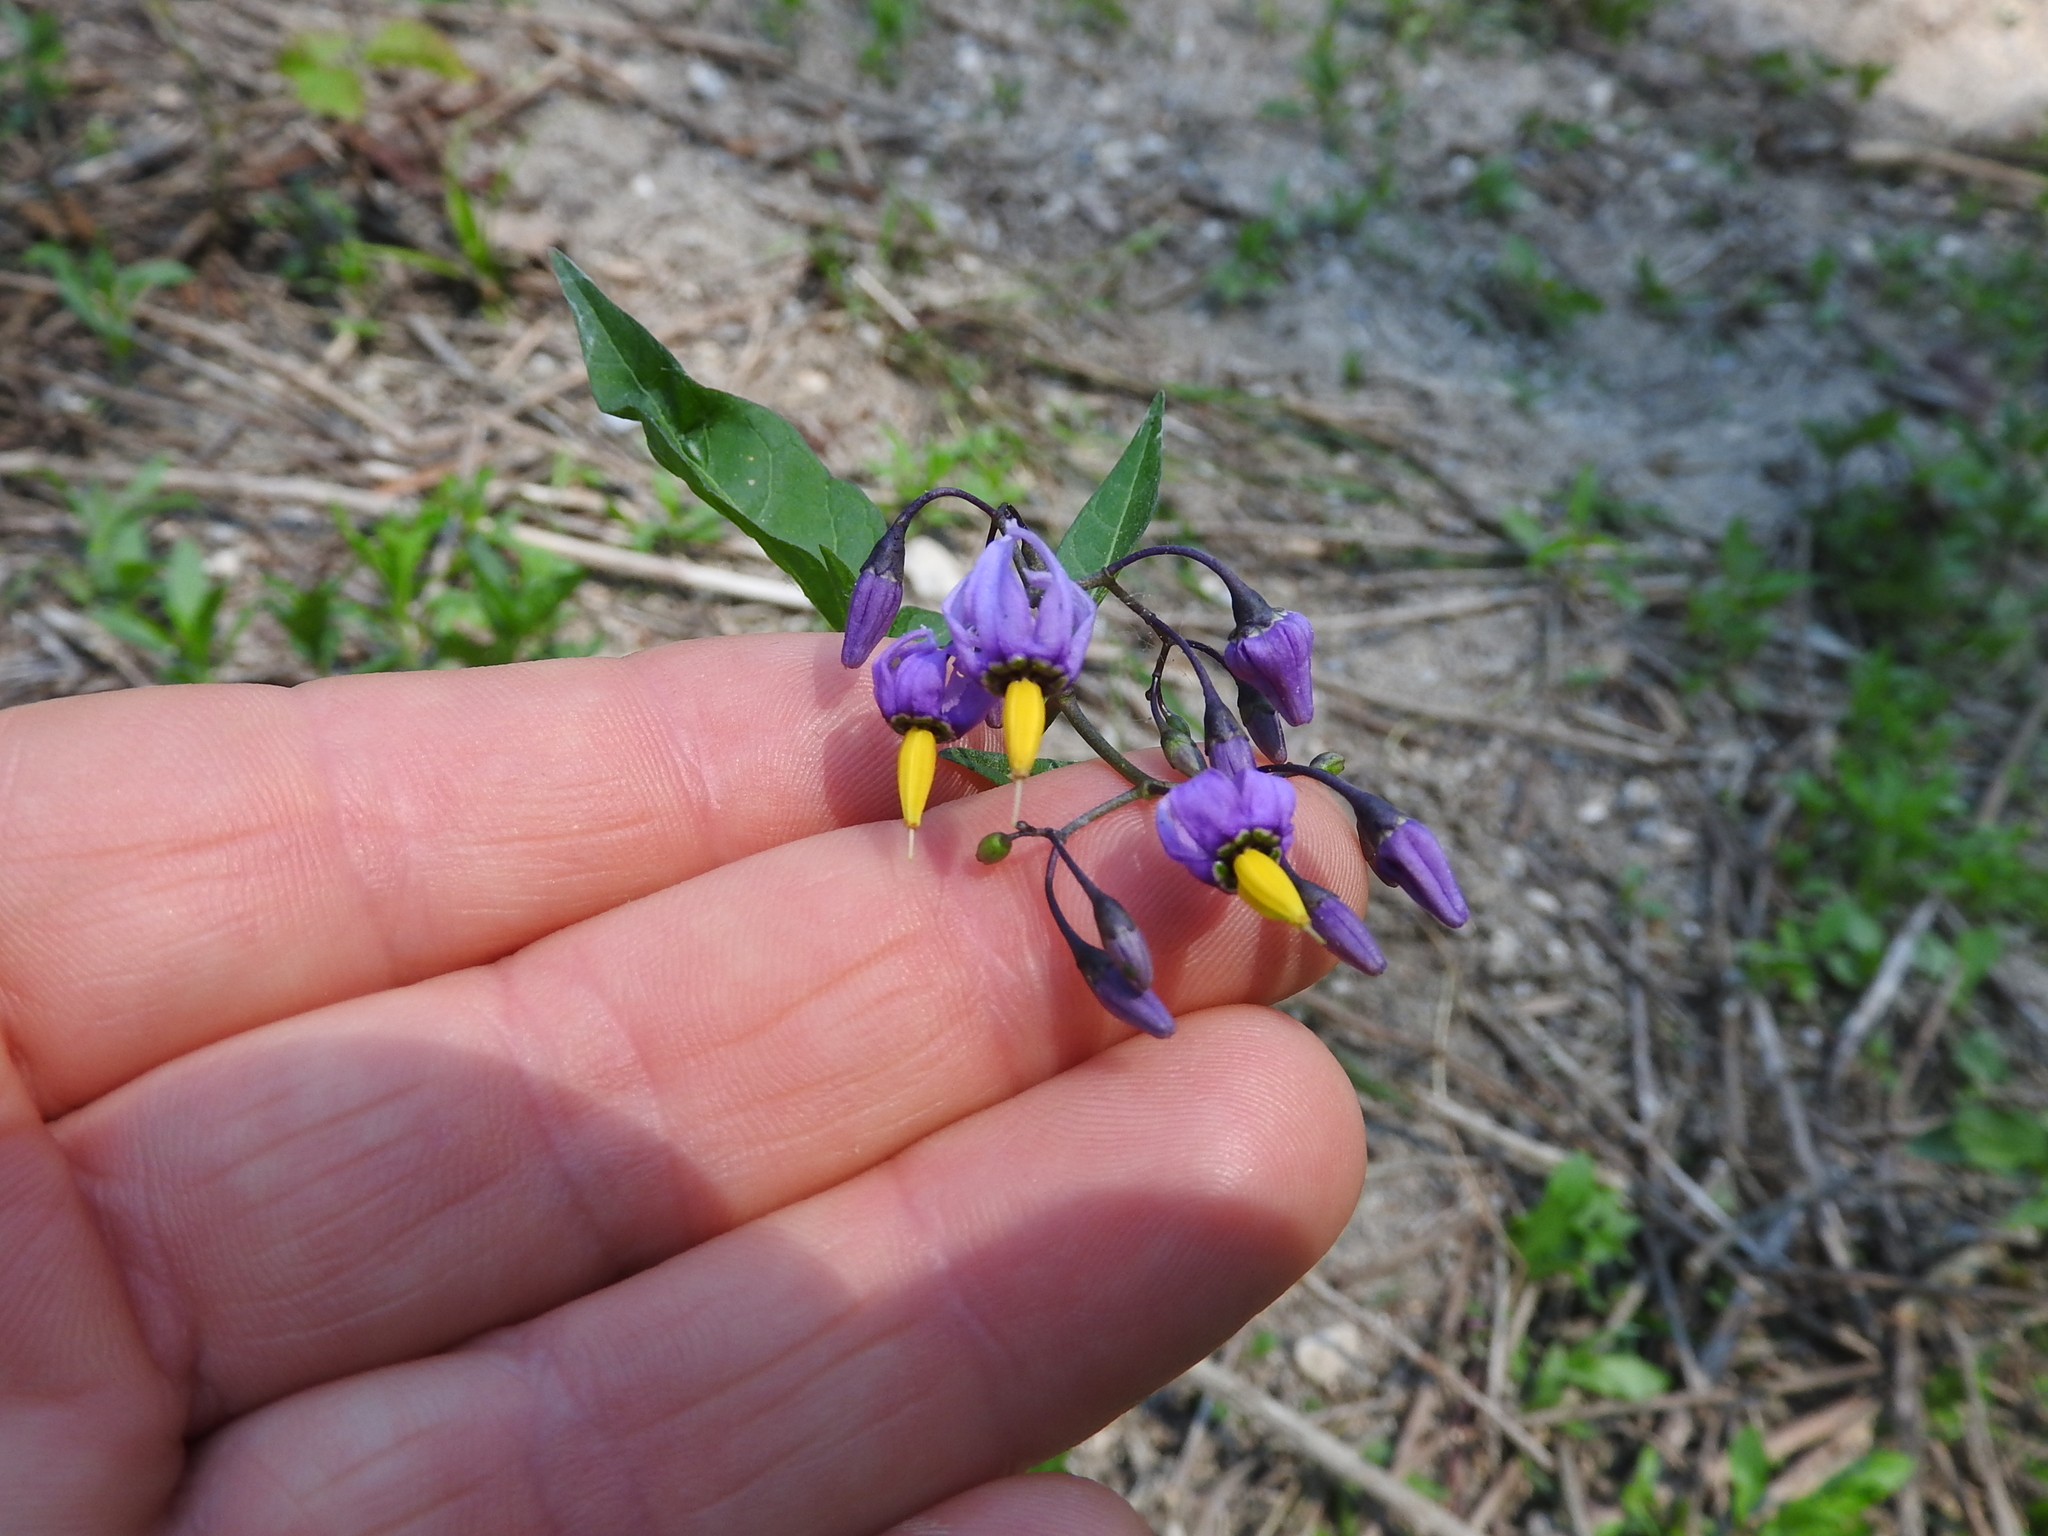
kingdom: Plantae
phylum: Tracheophyta
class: Magnoliopsida
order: Solanales
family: Solanaceae
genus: Solanum
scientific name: Solanum dulcamara
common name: Climbing nightshade
